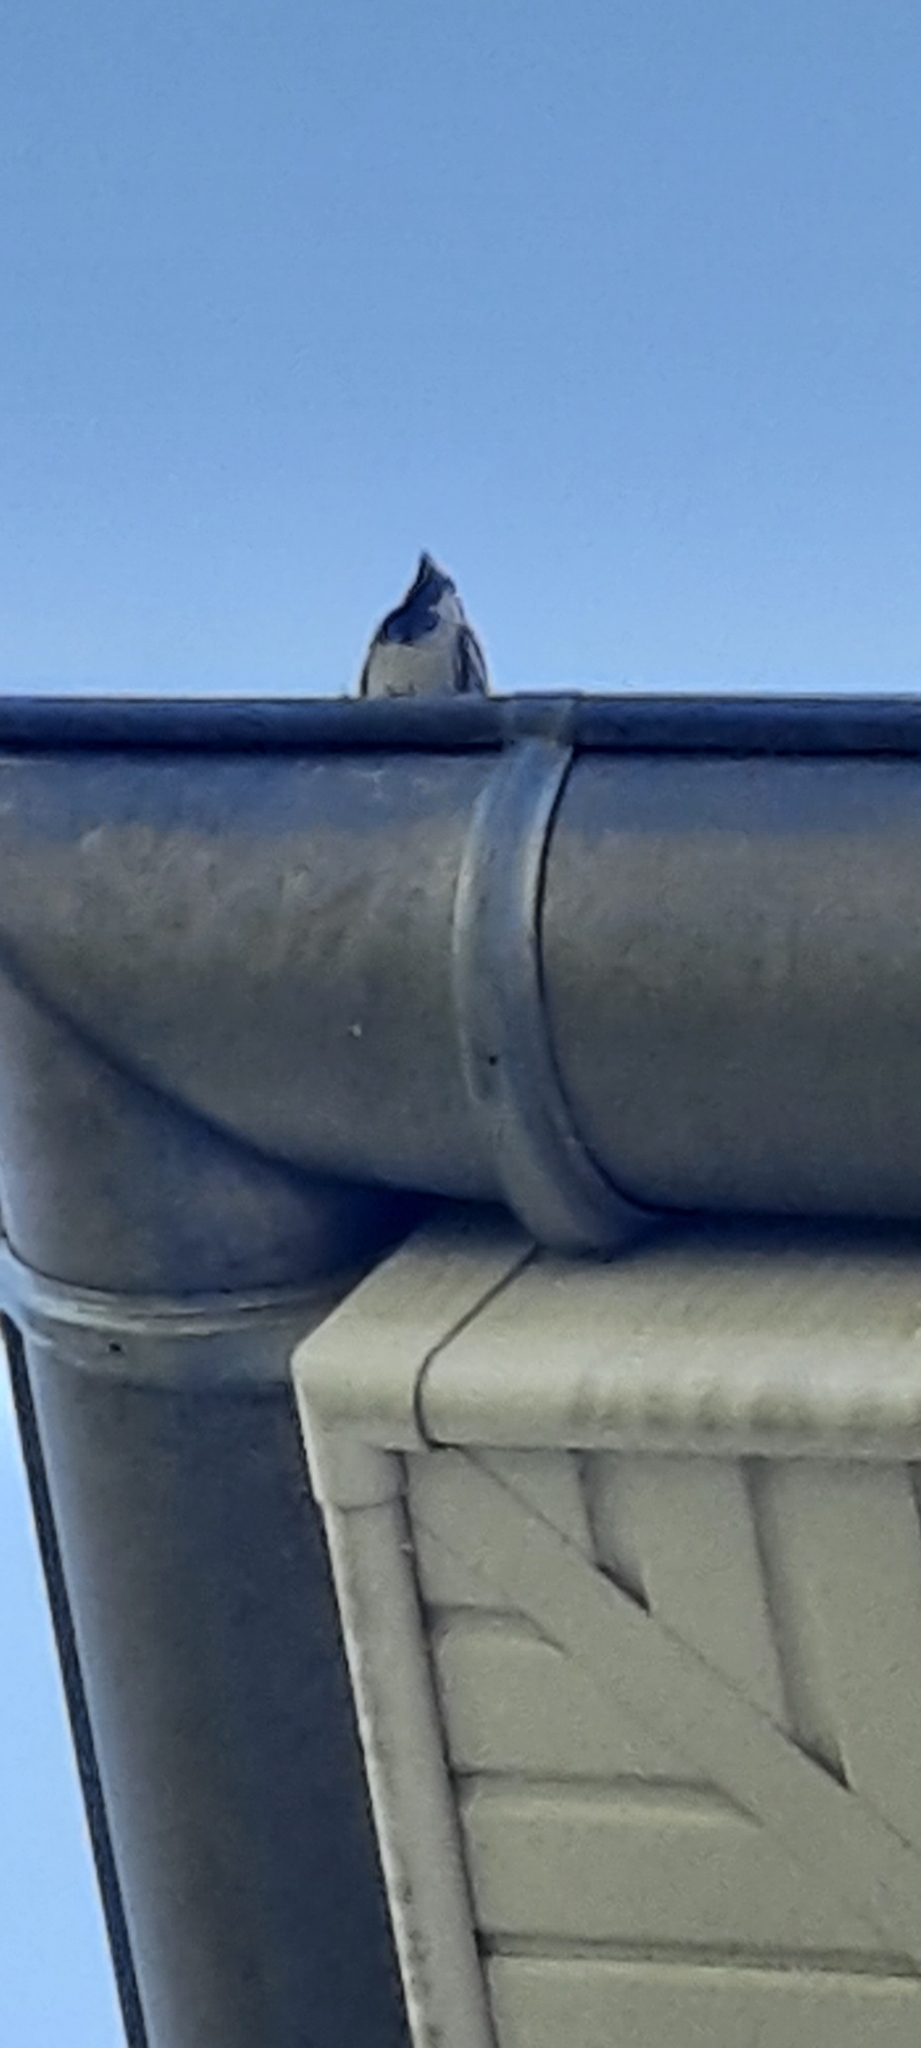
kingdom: Animalia
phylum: Chordata
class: Aves
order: Passeriformes
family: Passeridae
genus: Passer
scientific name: Passer domesticus
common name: House sparrow
